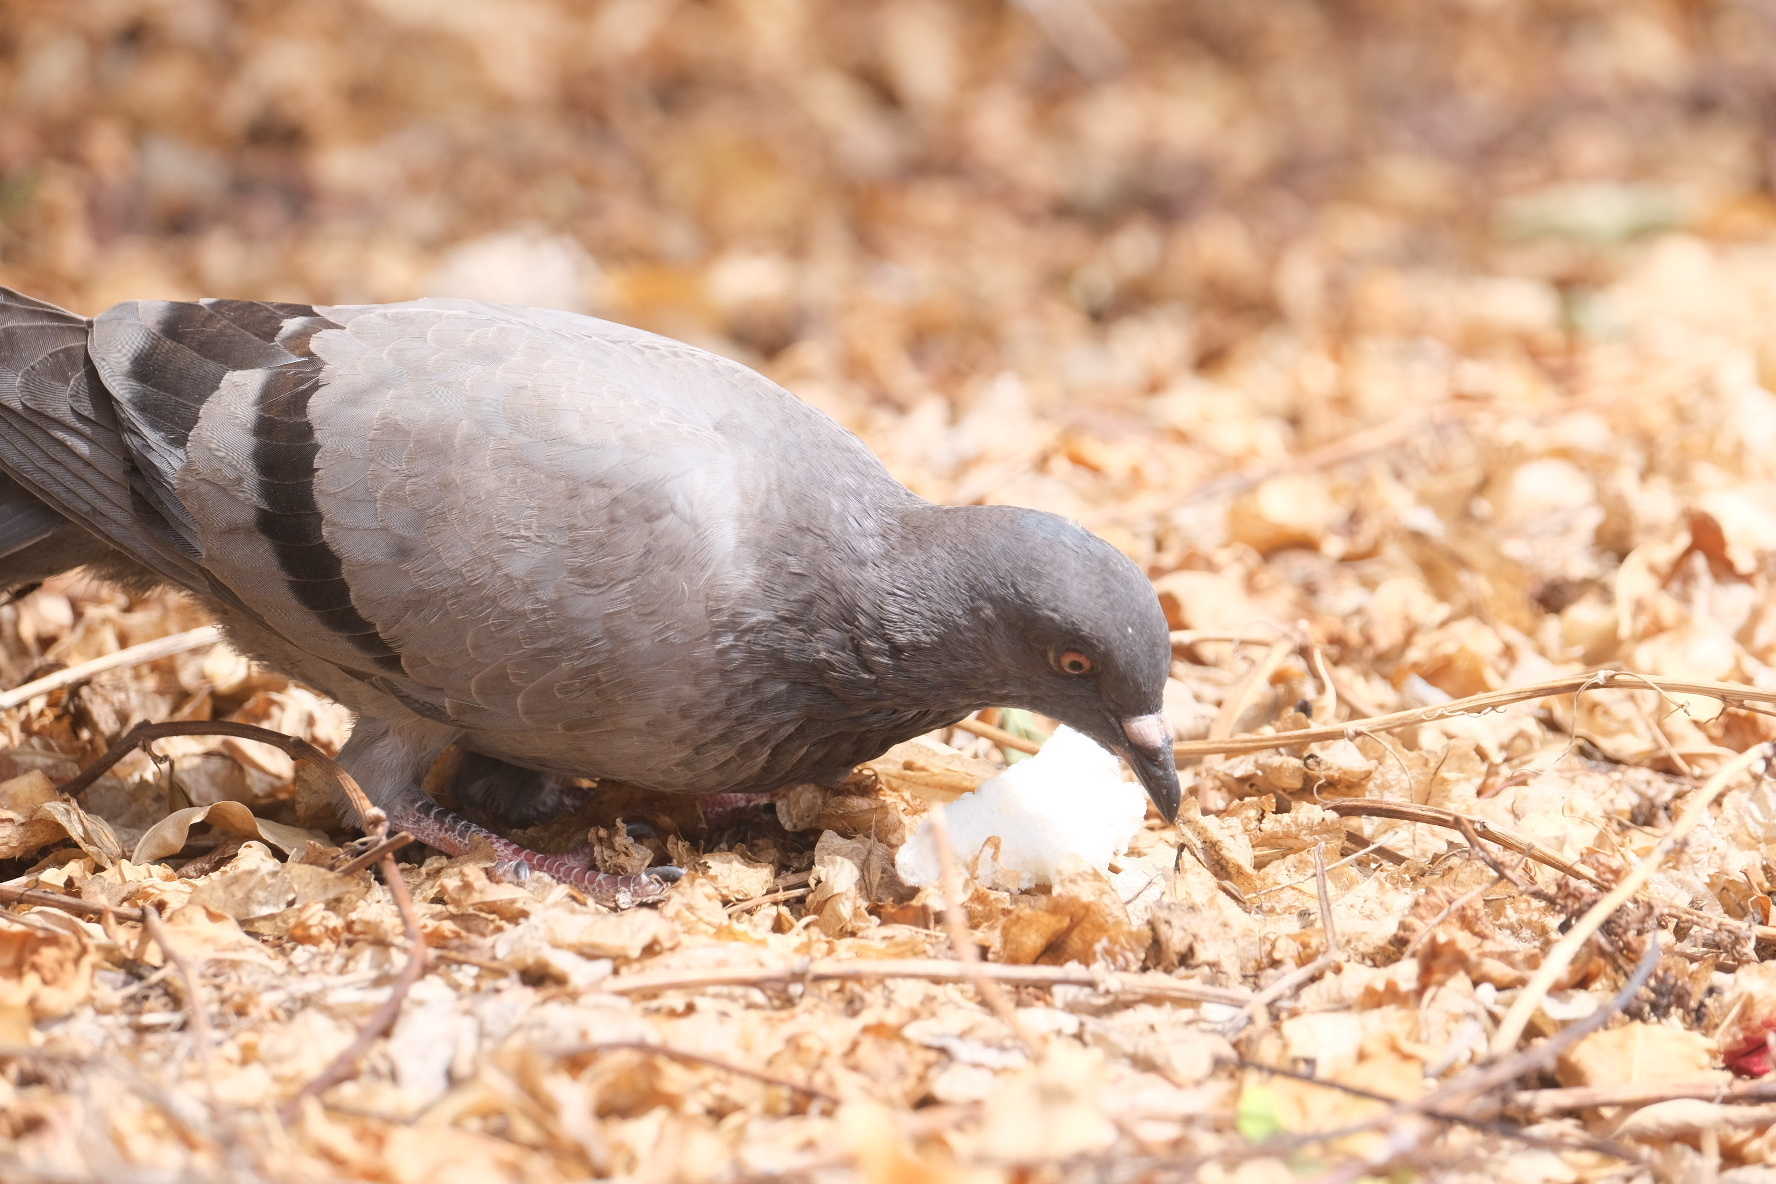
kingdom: Animalia
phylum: Chordata
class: Aves
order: Columbiformes
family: Columbidae
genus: Columba
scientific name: Columba livia
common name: Rock pigeon
